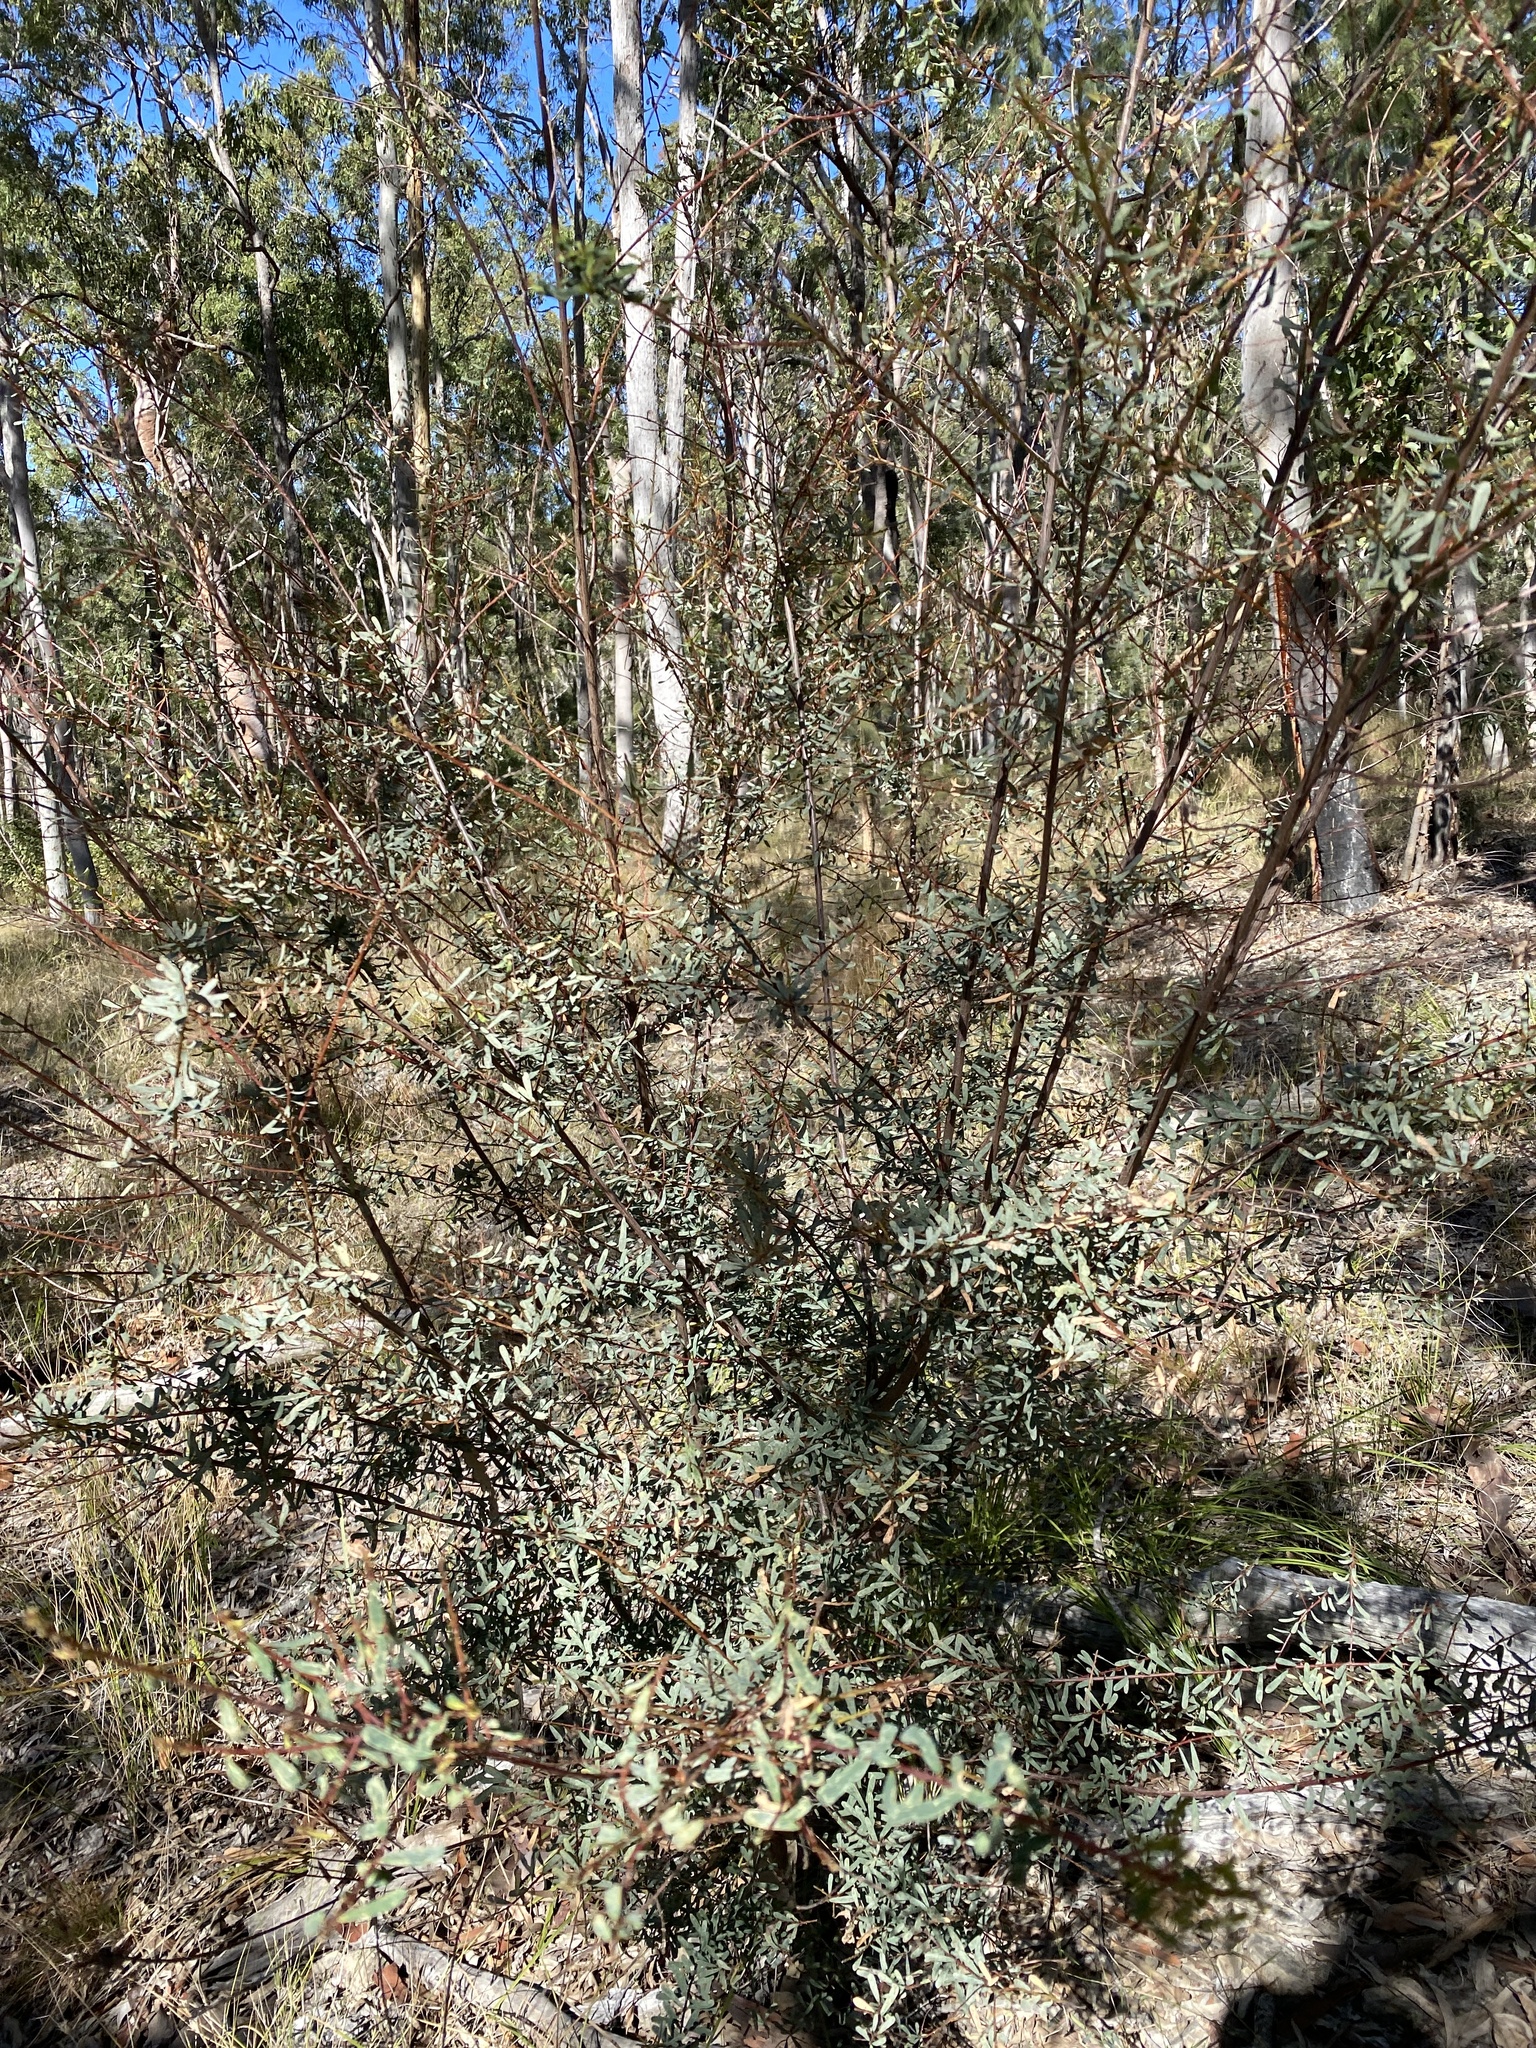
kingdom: Plantae
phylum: Tracheophyta
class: Magnoliopsida
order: Fabales
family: Fabaceae
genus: Pultenaea
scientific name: Pultenaea euchila
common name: Large-flower bush-pea
